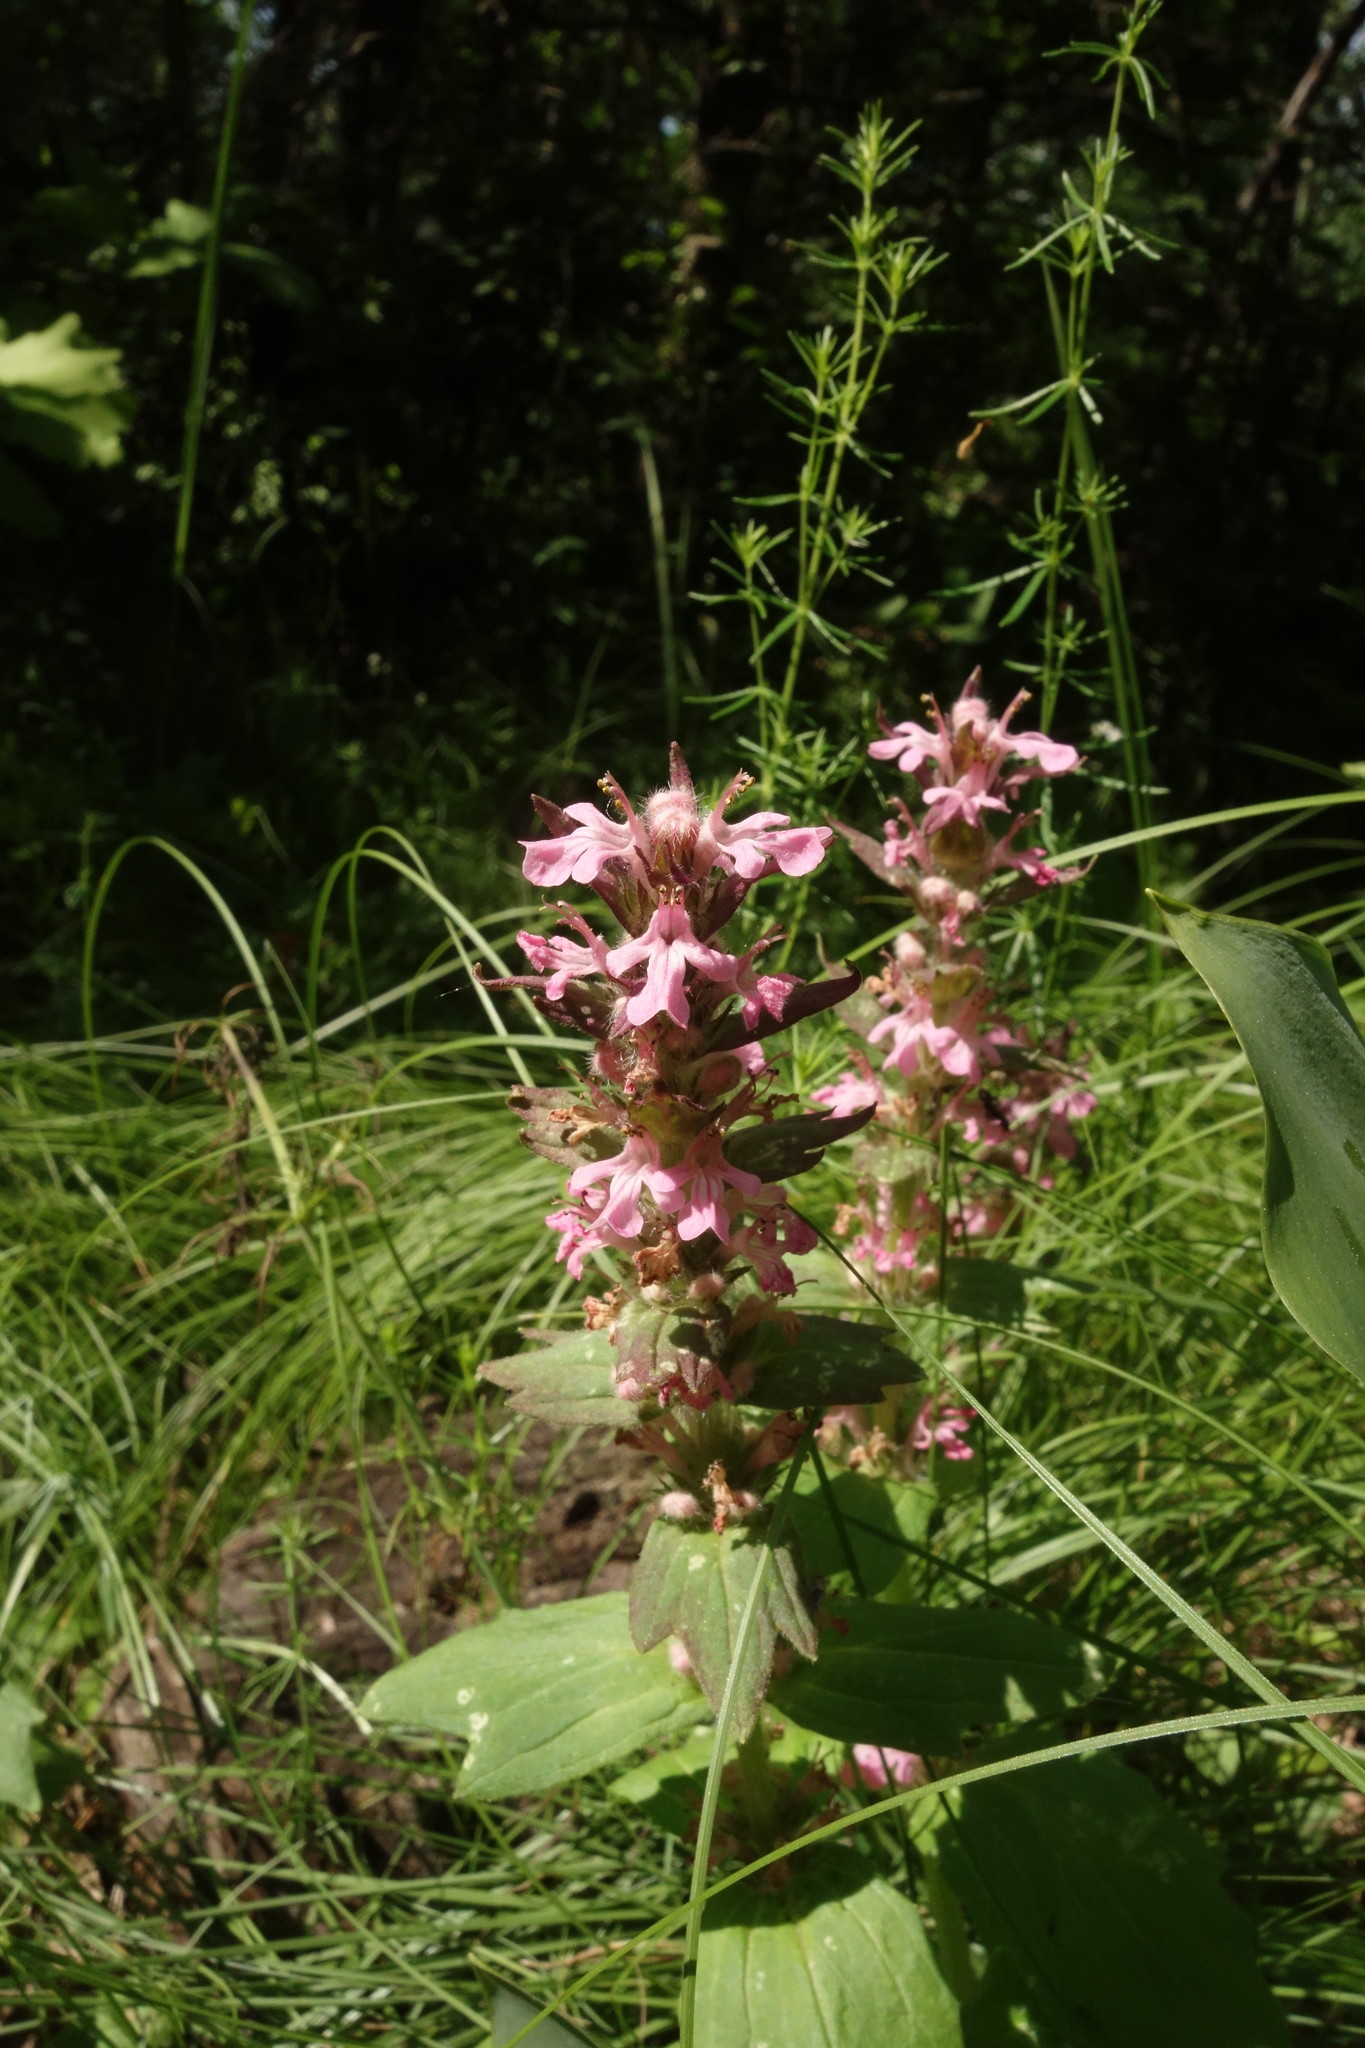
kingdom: Plantae
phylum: Tracheophyta
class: Magnoliopsida
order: Lamiales
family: Lamiaceae
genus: Ajuga
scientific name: Ajuga genevensis
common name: Blue bugle
